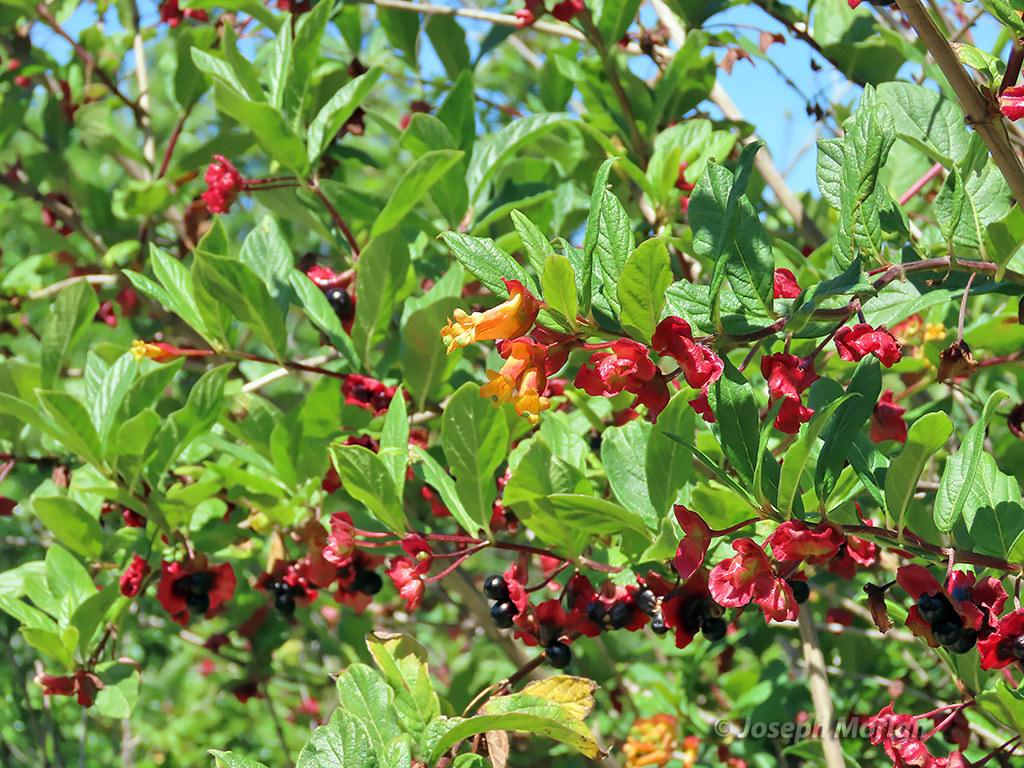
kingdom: Plantae
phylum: Tracheophyta
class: Magnoliopsida
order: Dipsacales
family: Caprifoliaceae
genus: Lonicera
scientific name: Lonicera involucrata
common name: Californian honeysuckle
